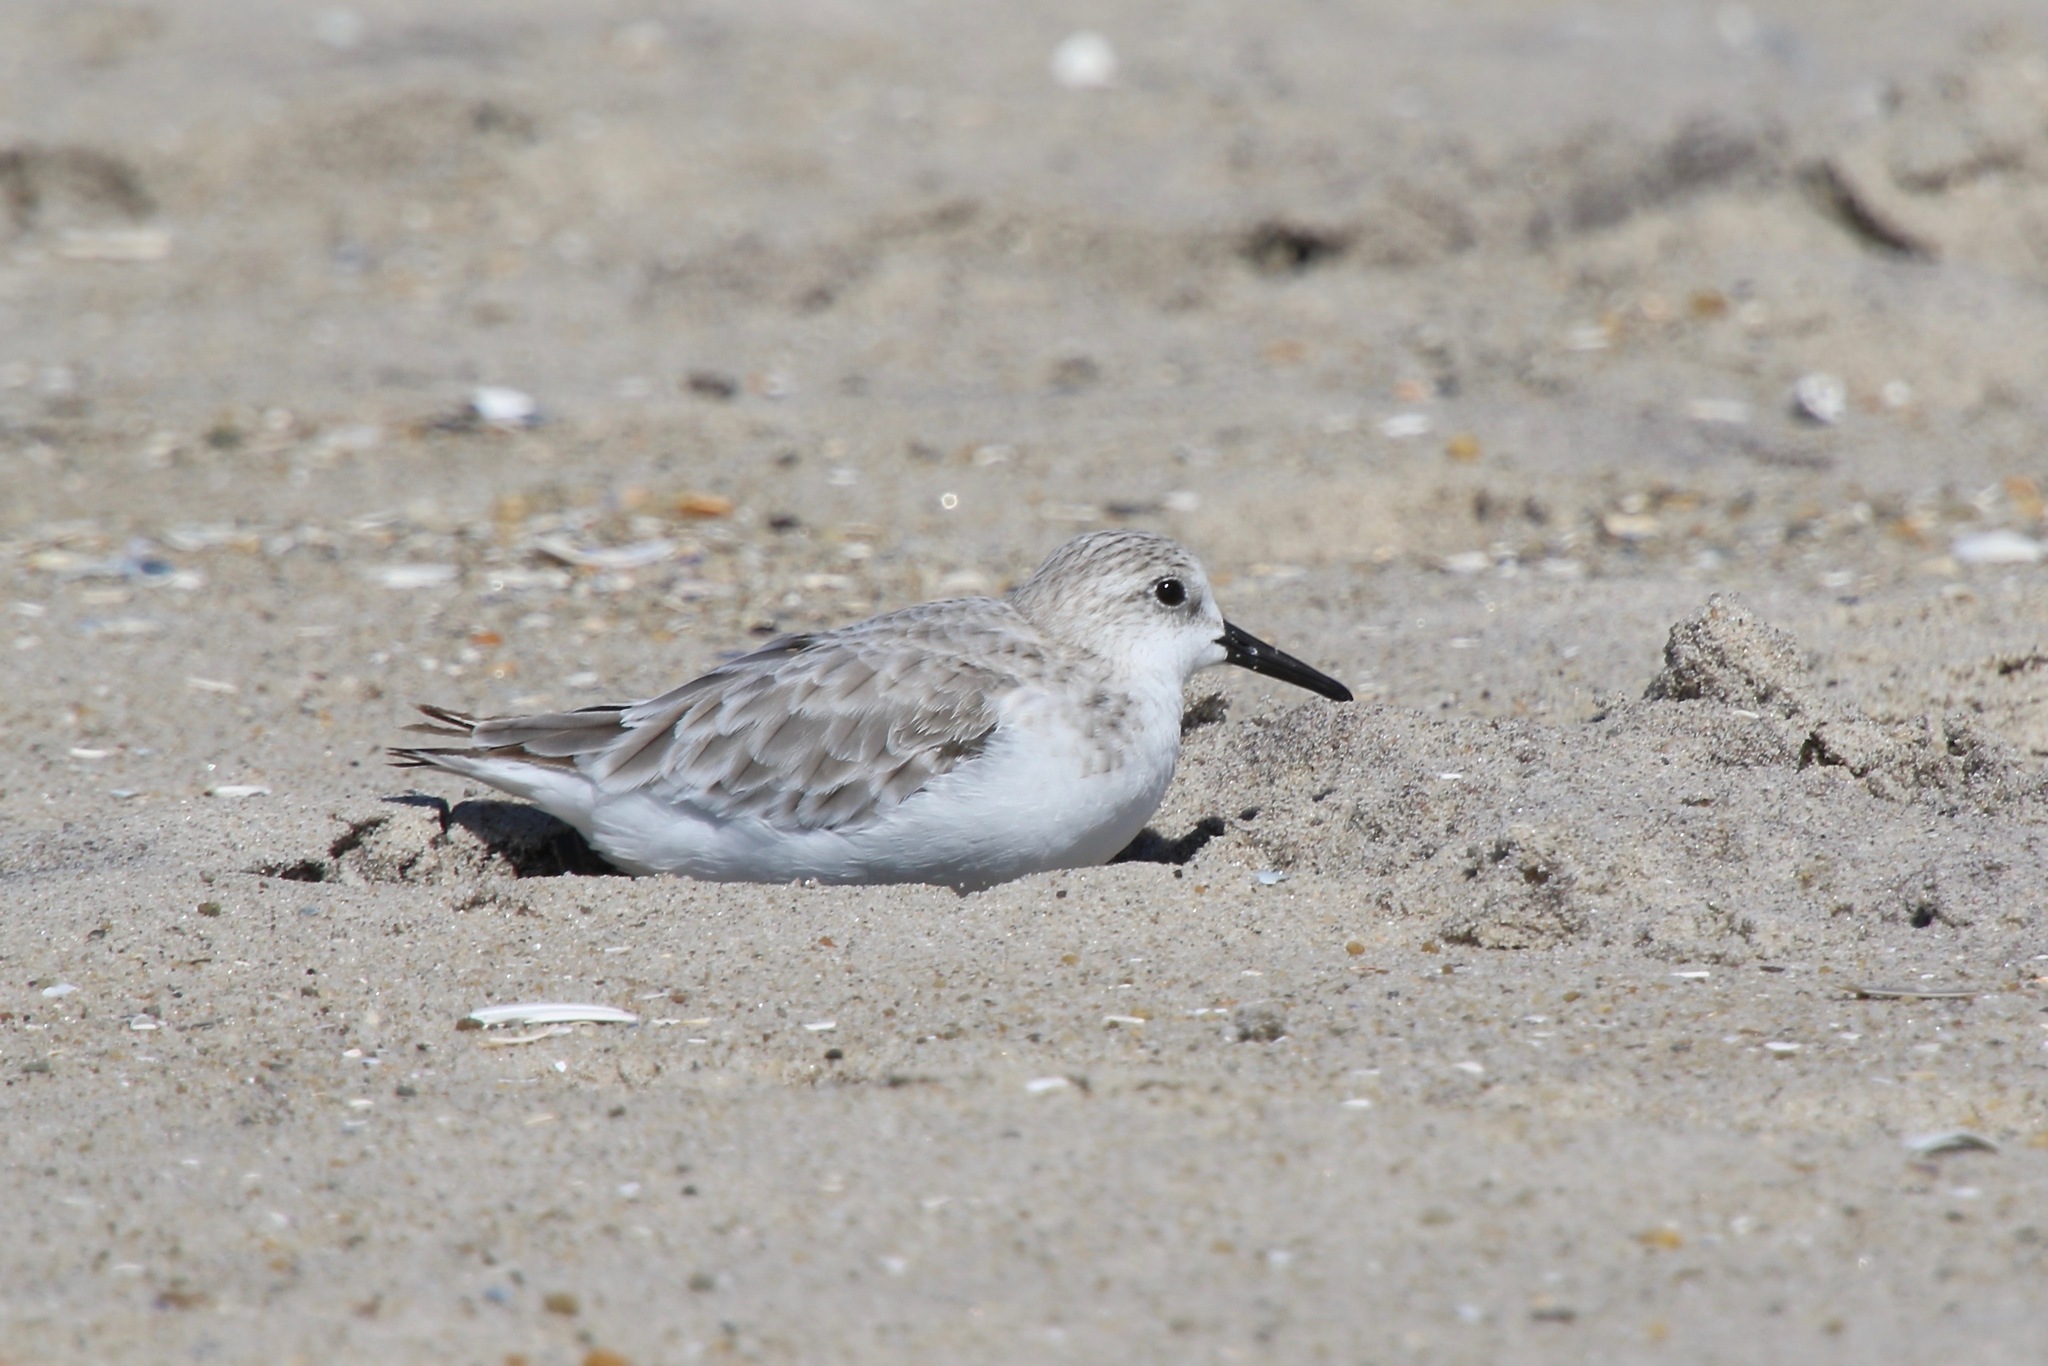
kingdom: Animalia
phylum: Chordata
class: Aves
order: Charadriiformes
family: Scolopacidae
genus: Calidris
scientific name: Calidris alba
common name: Sanderling
